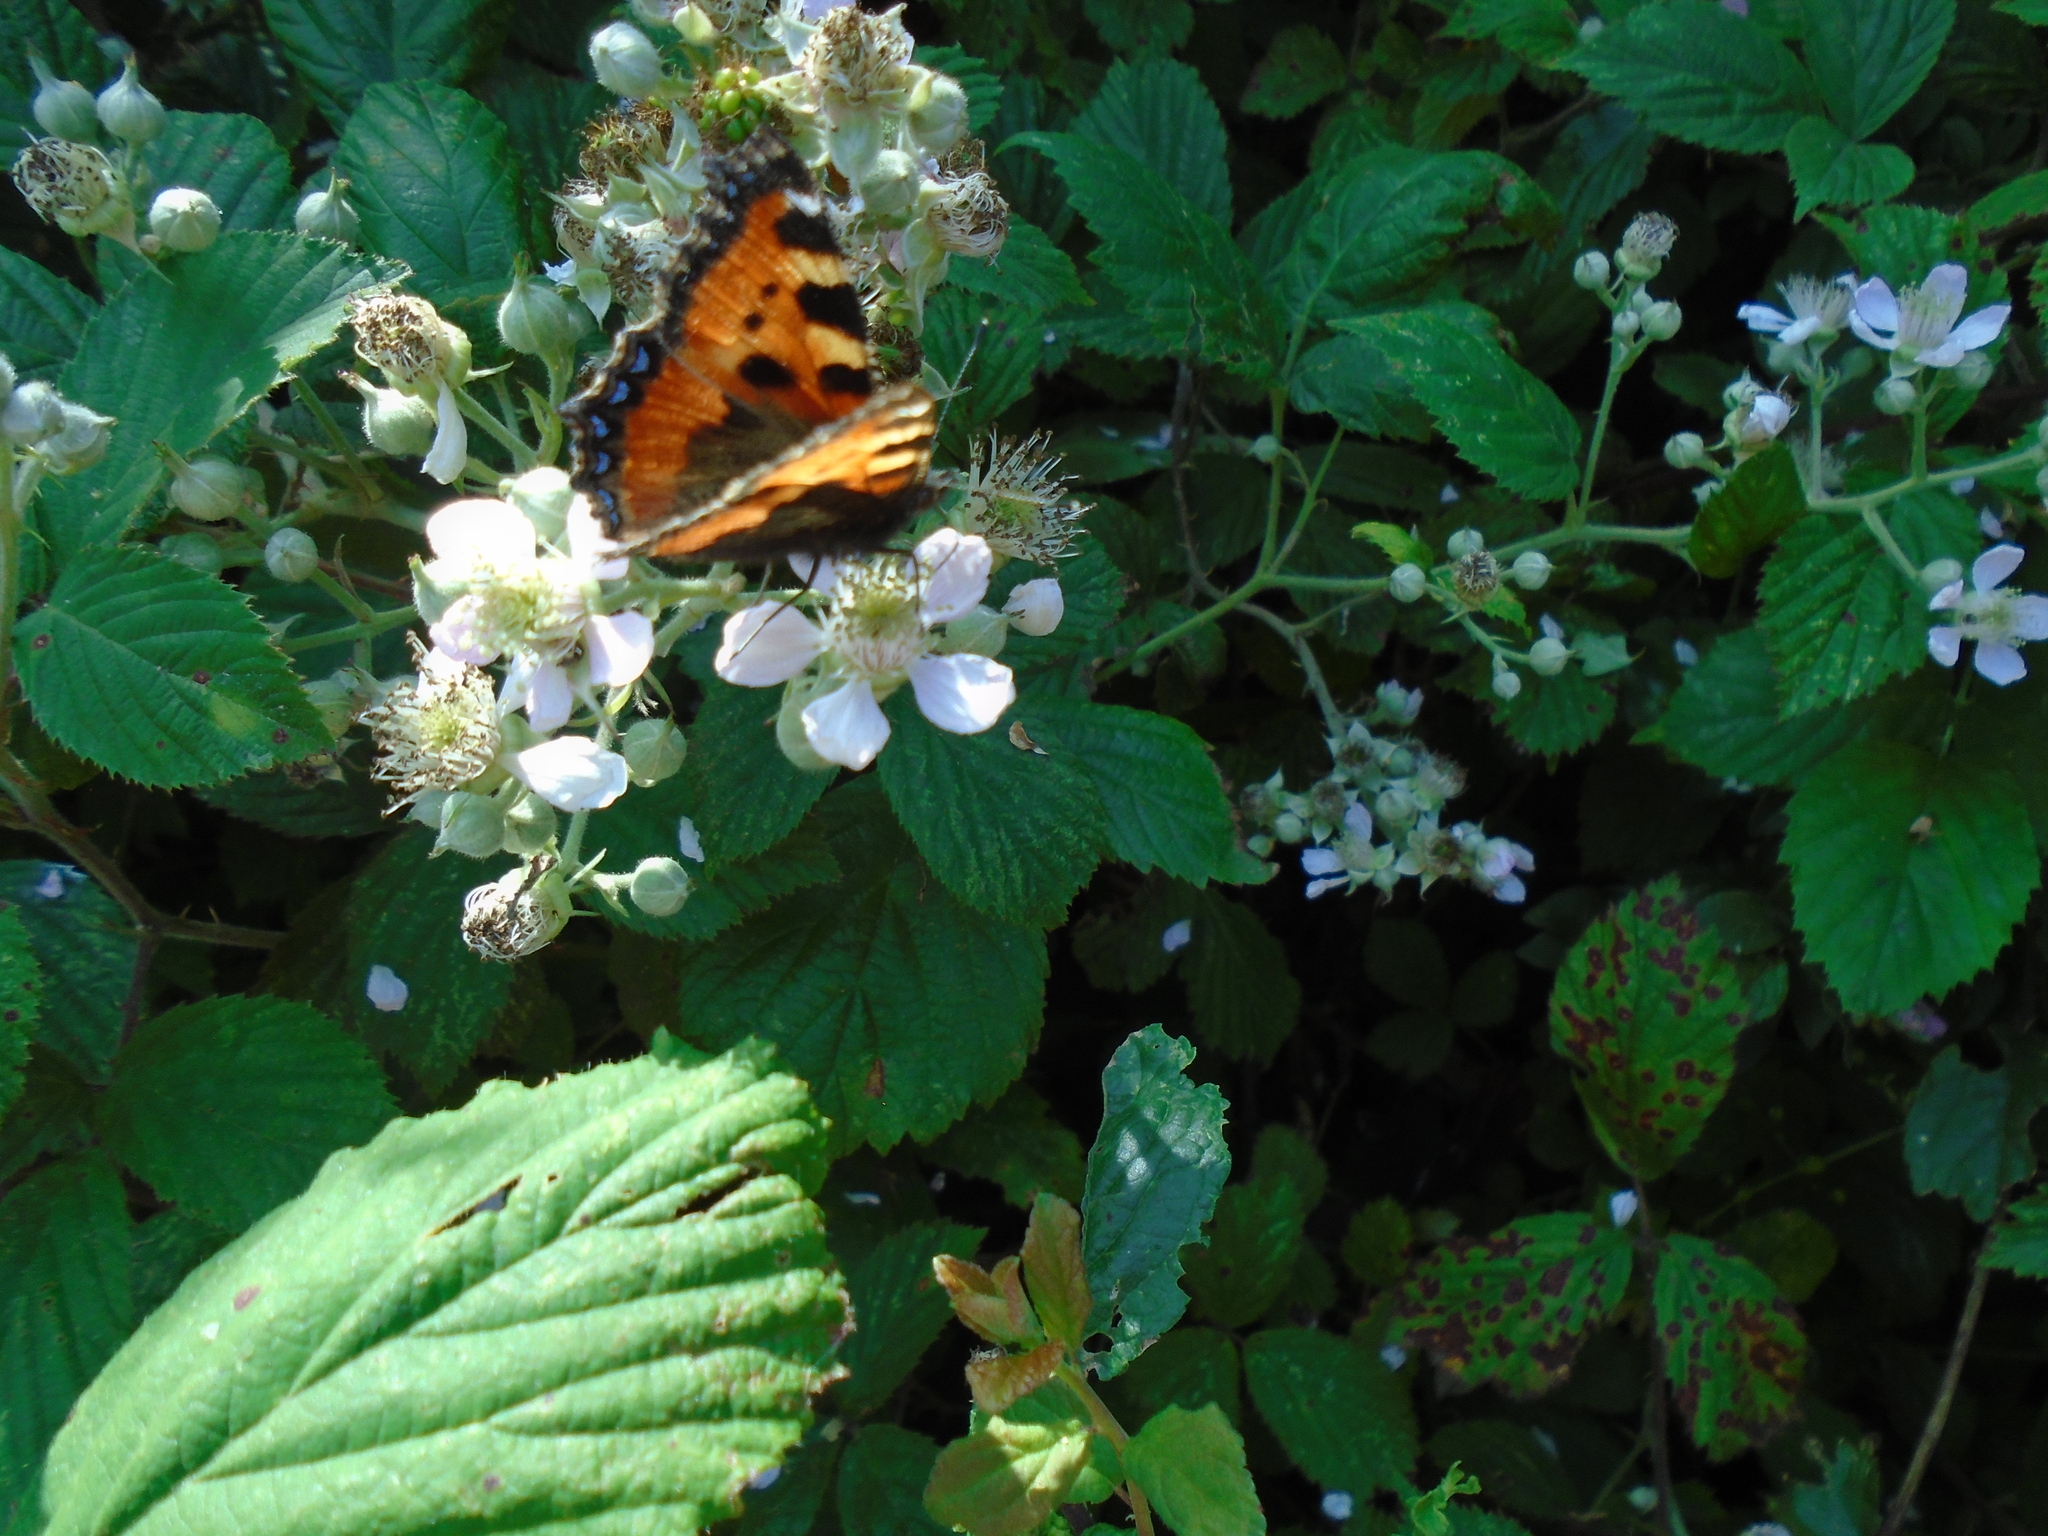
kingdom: Animalia
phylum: Arthropoda
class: Insecta
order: Lepidoptera
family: Nymphalidae
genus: Aglais
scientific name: Aglais urticae
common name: Small tortoiseshell
